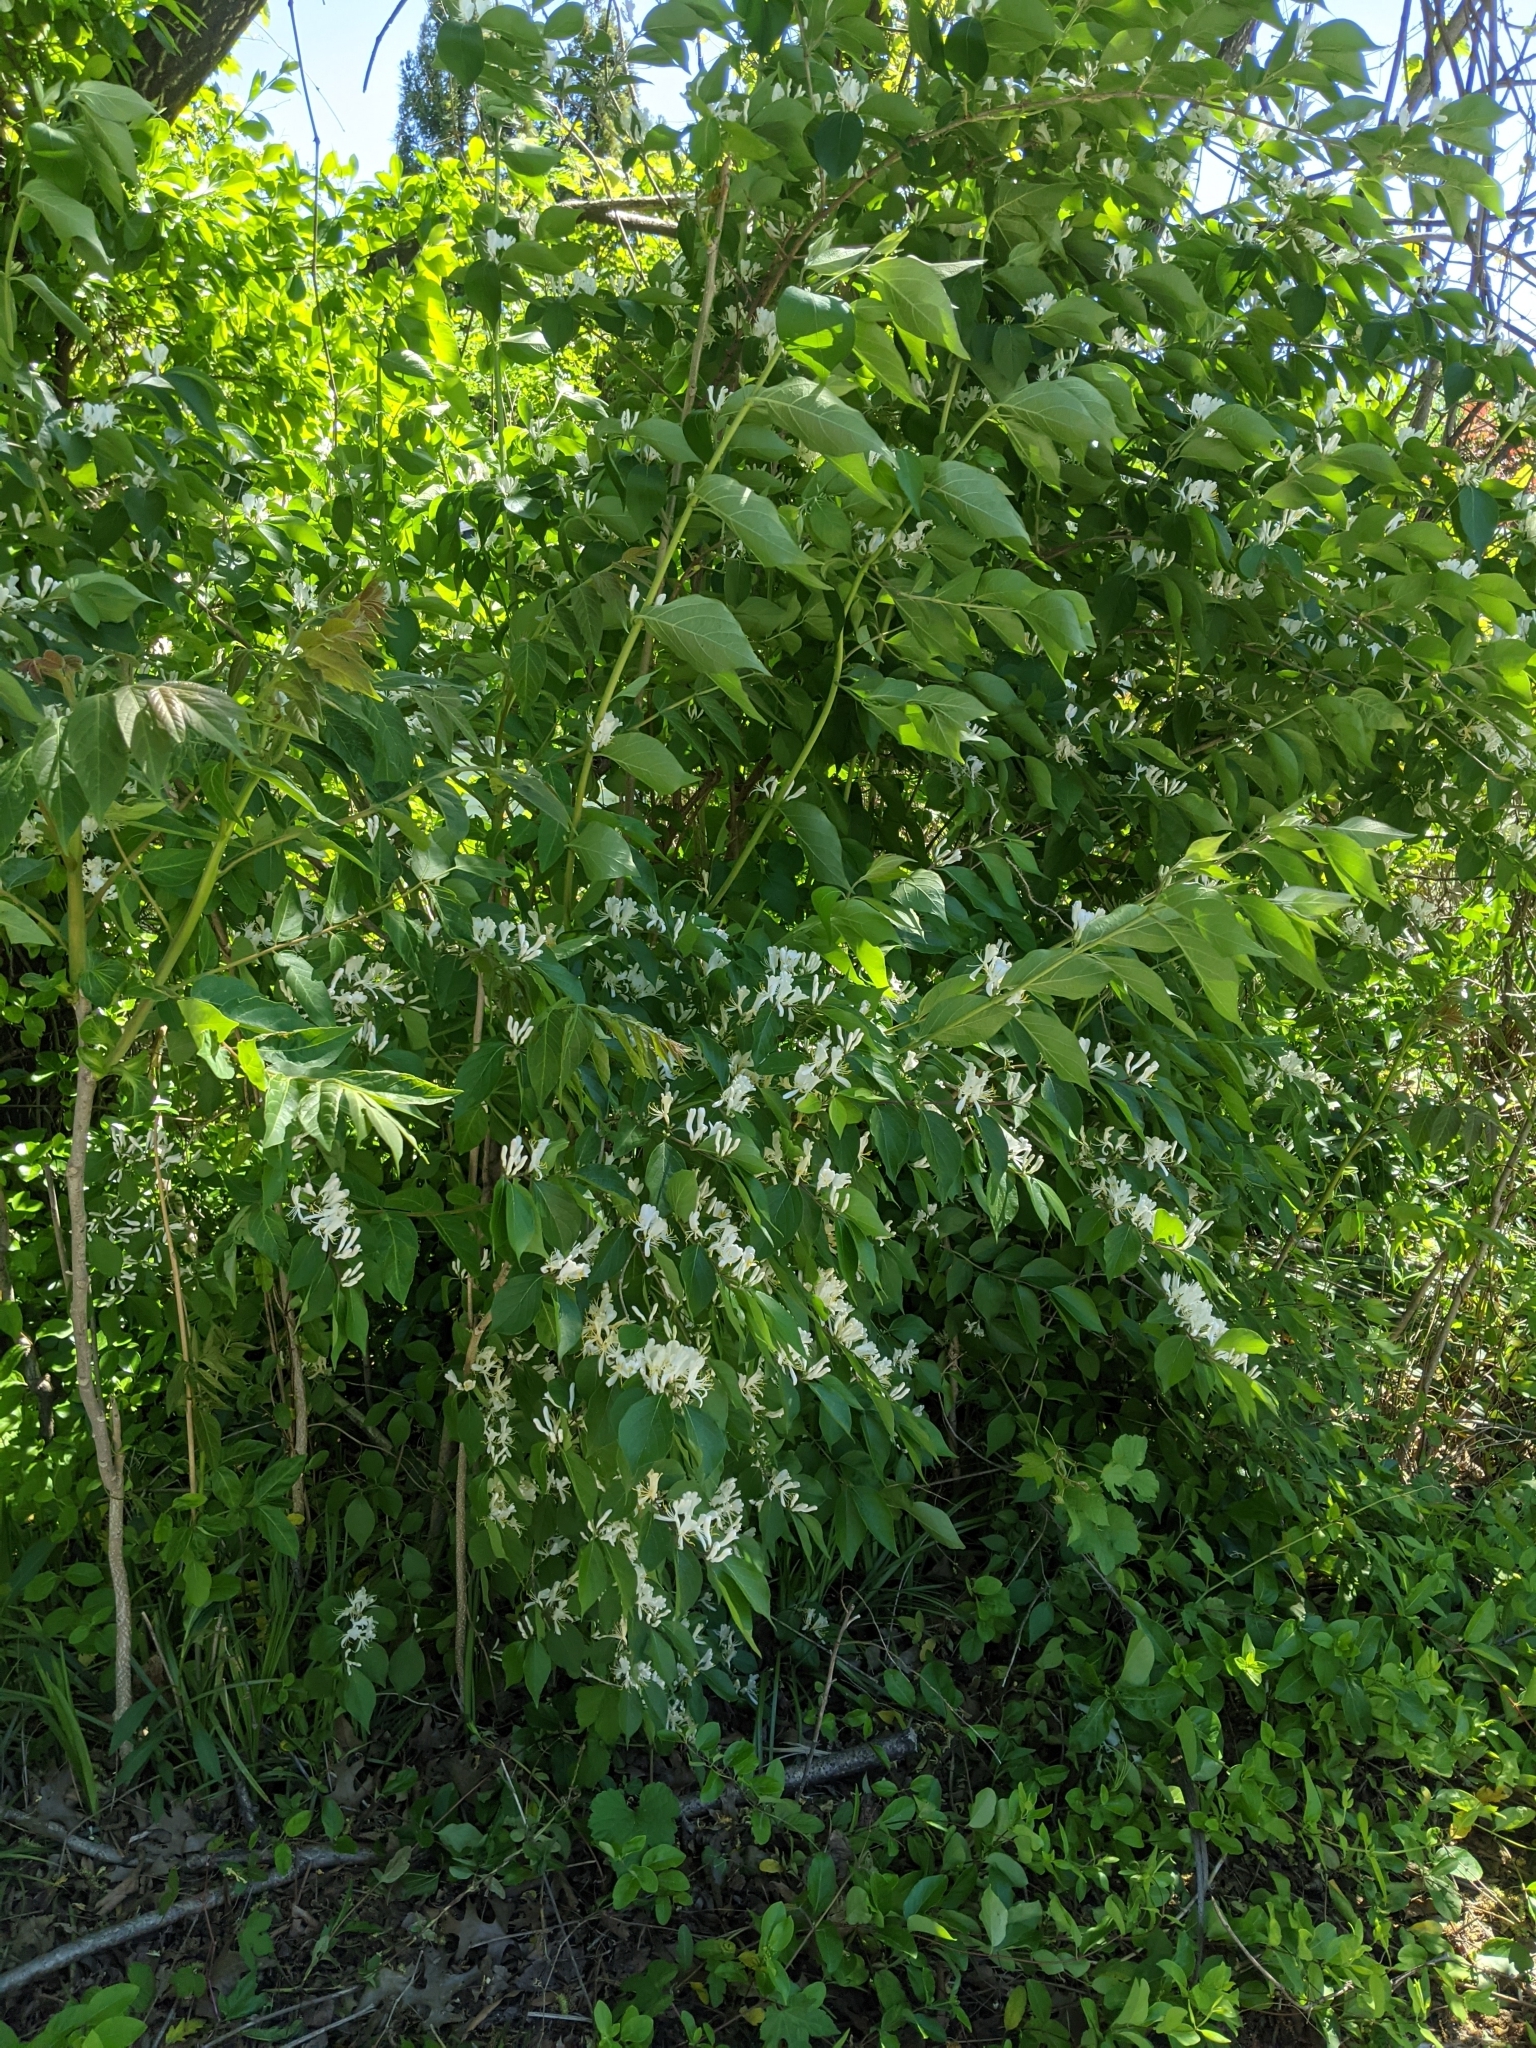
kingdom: Plantae
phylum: Tracheophyta
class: Magnoliopsida
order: Dipsacales
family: Caprifoliaceae
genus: Lonicera
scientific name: Lonicera maackii
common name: Amur honeysuckle
